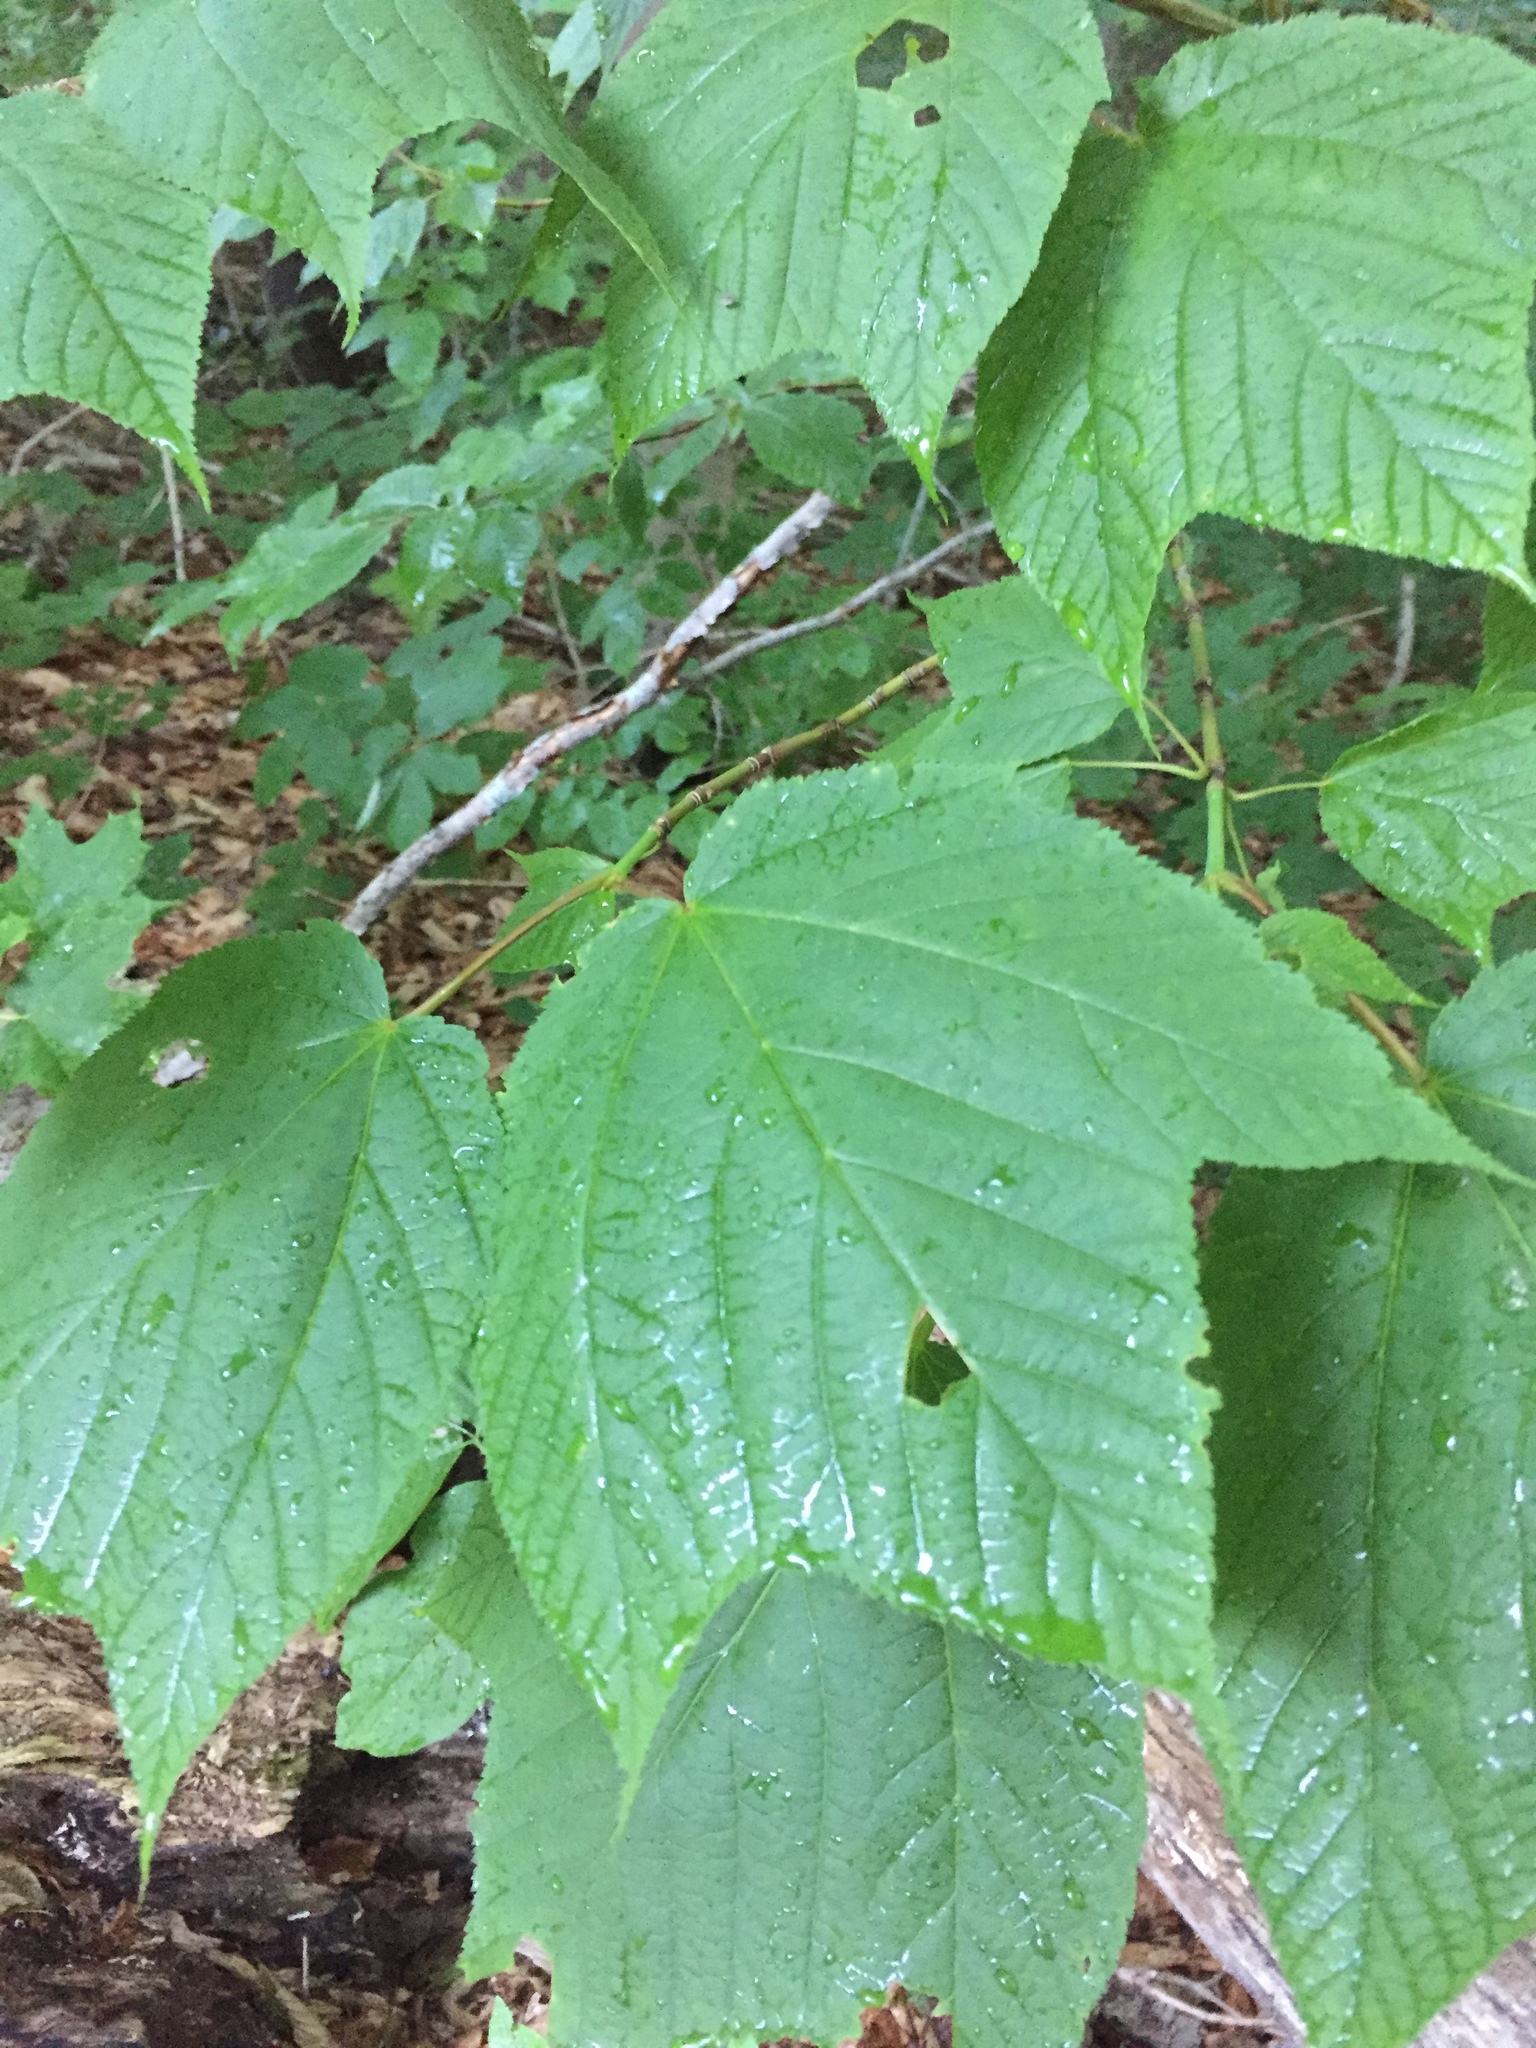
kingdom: Plantae
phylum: Tracheophyta
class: Magnoliopsida
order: Sapindales
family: Sapindaceae
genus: Acer
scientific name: Acer pensylvanicum
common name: Moosewood
